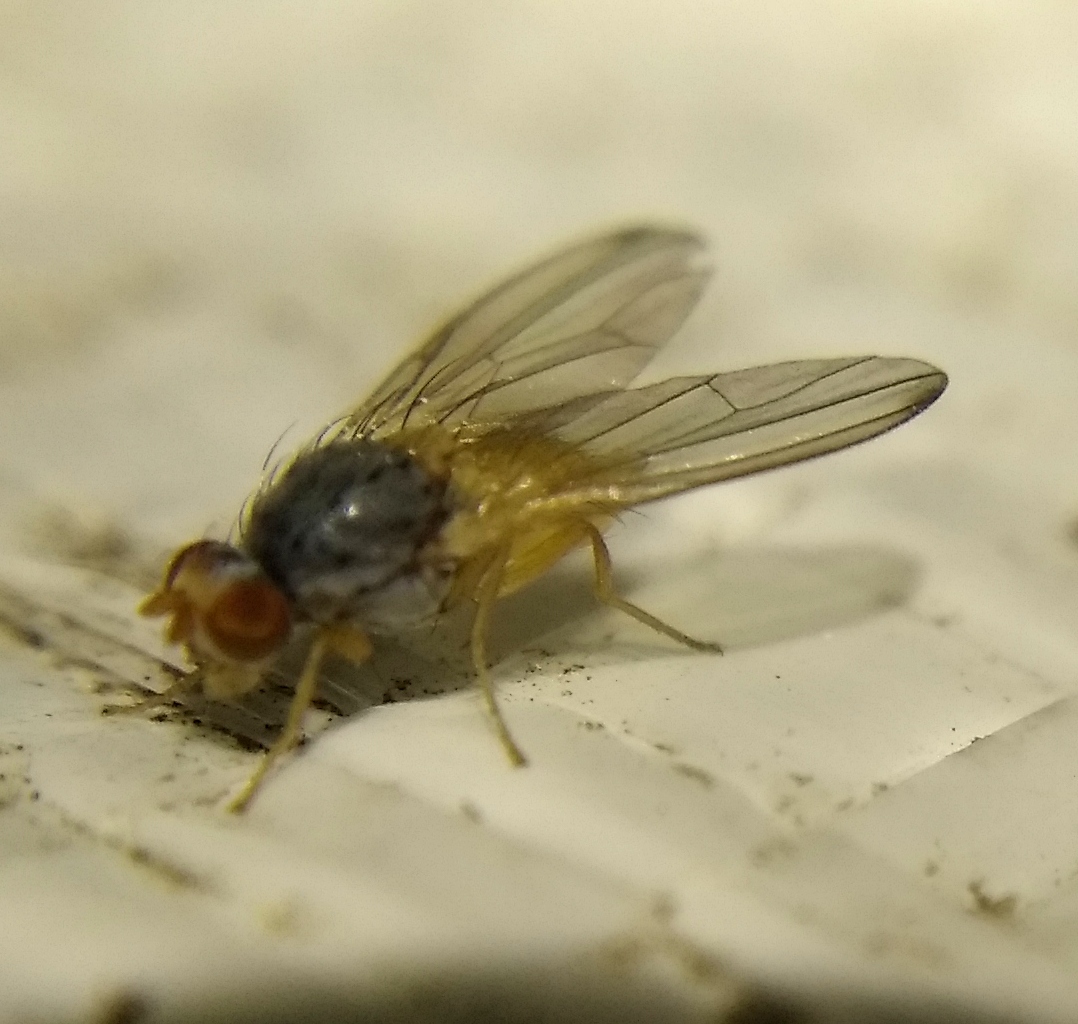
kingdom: Animalia
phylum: Arthropoda
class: Insecta
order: Diptera
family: Pallopteridae
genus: Palloptera
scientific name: Palloptera ustulata
